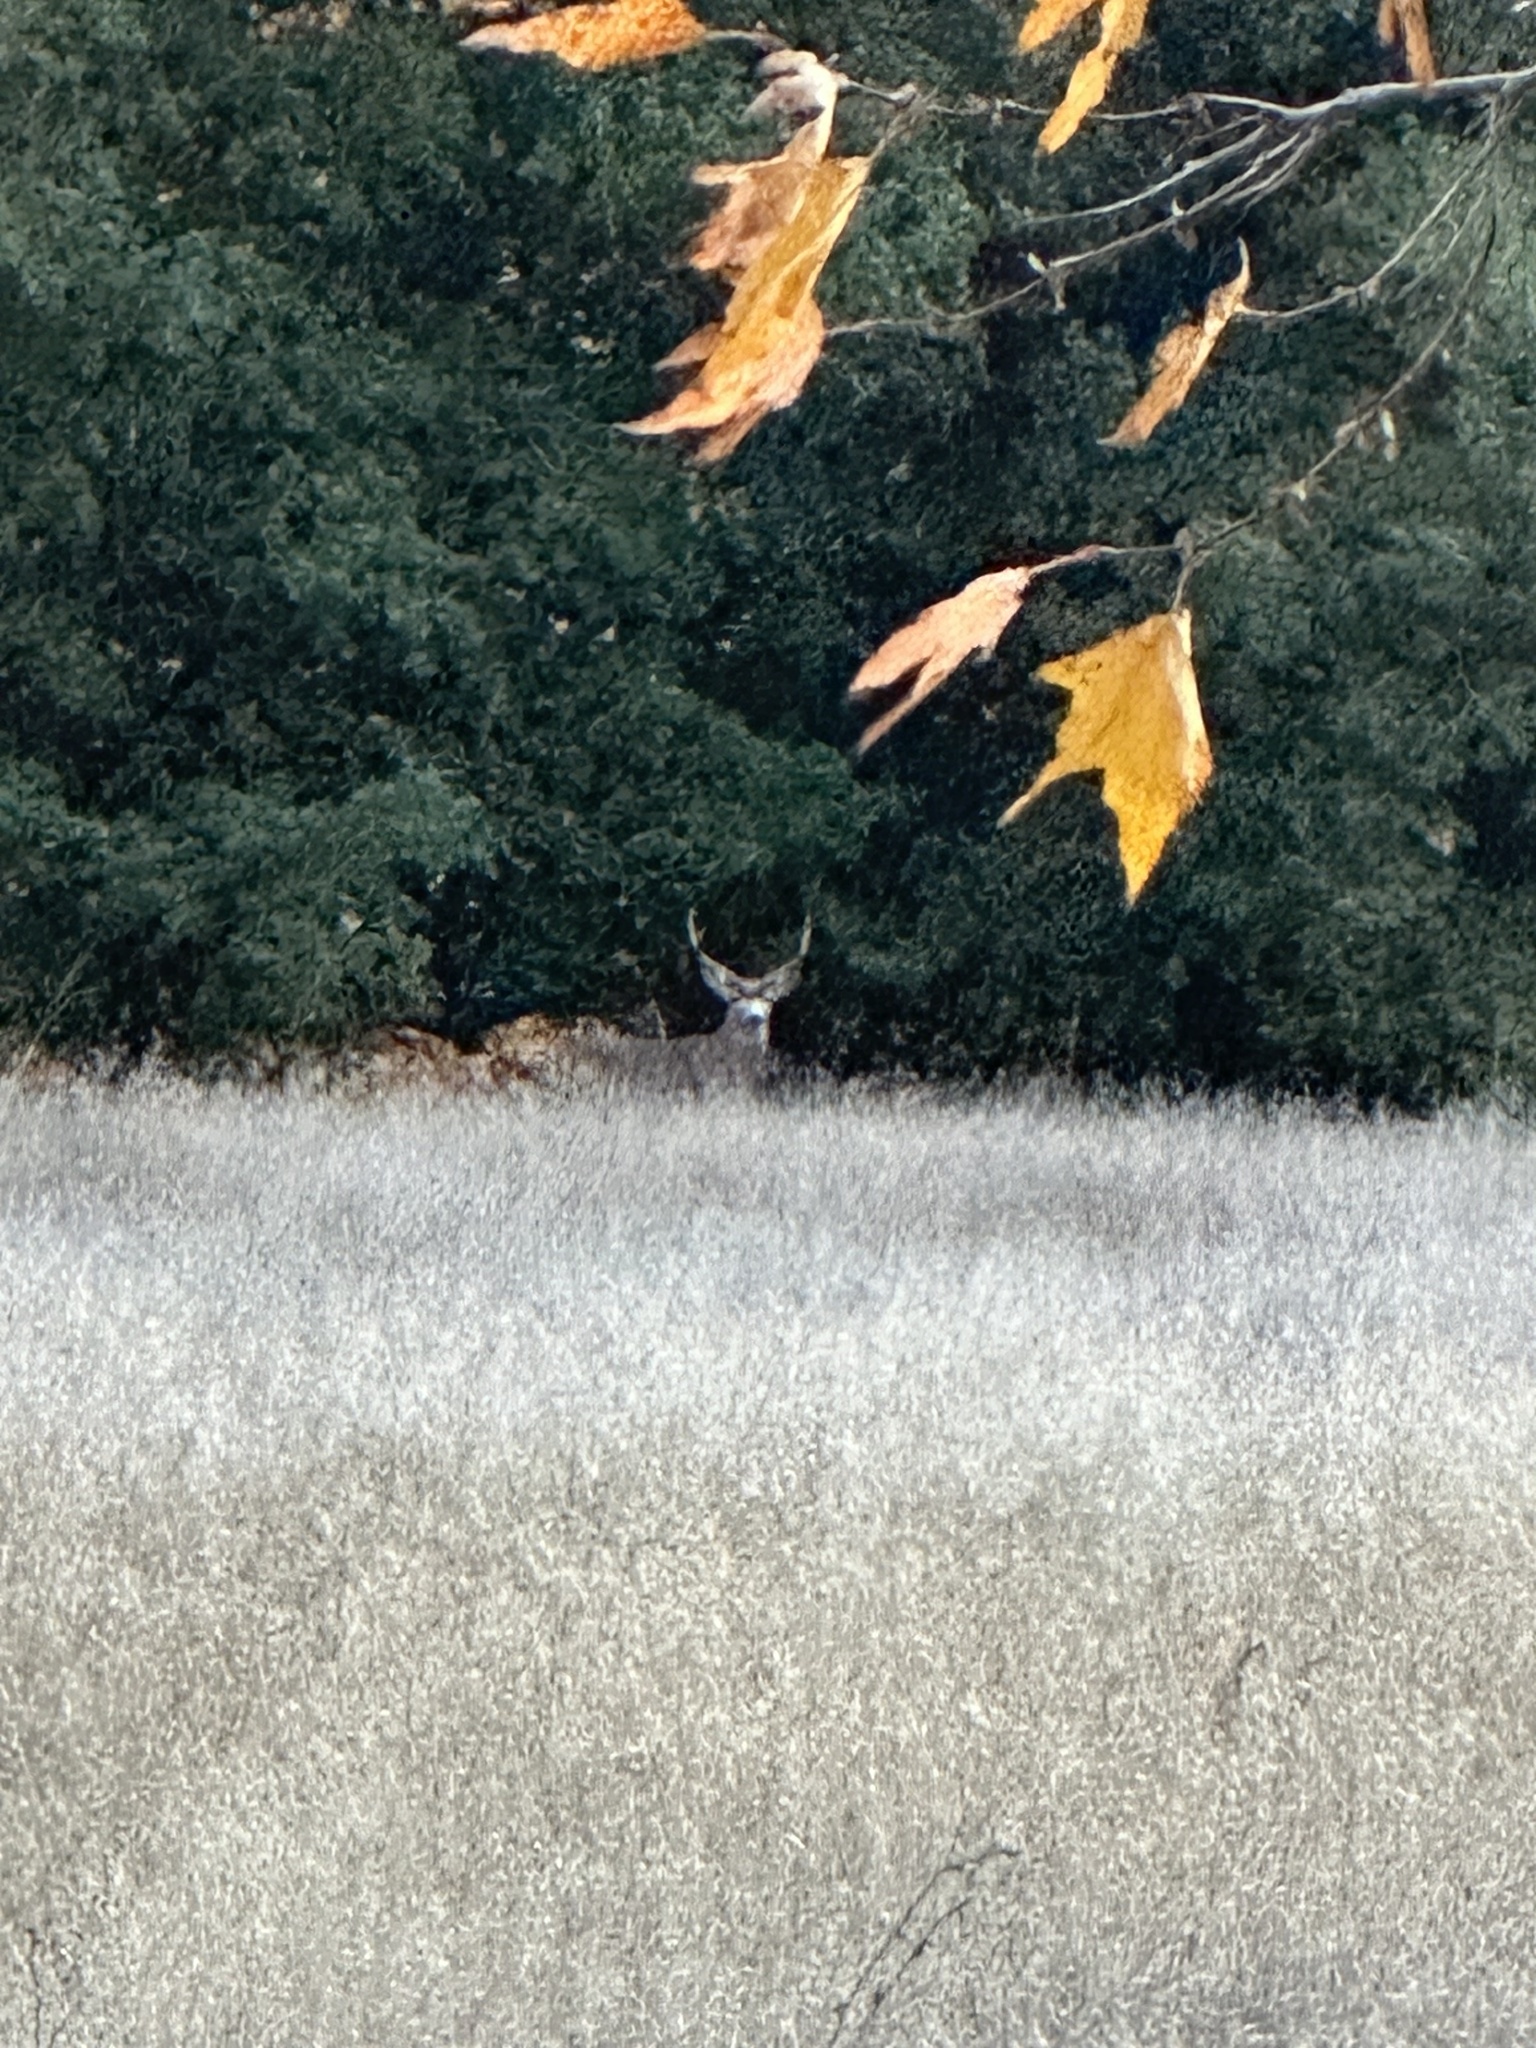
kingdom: Animalia
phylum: Chordata
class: Mammalia
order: Artiodactyla
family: Cervidae
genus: Odocoileus
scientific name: Odocoileus hemionus
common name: Mule deer
